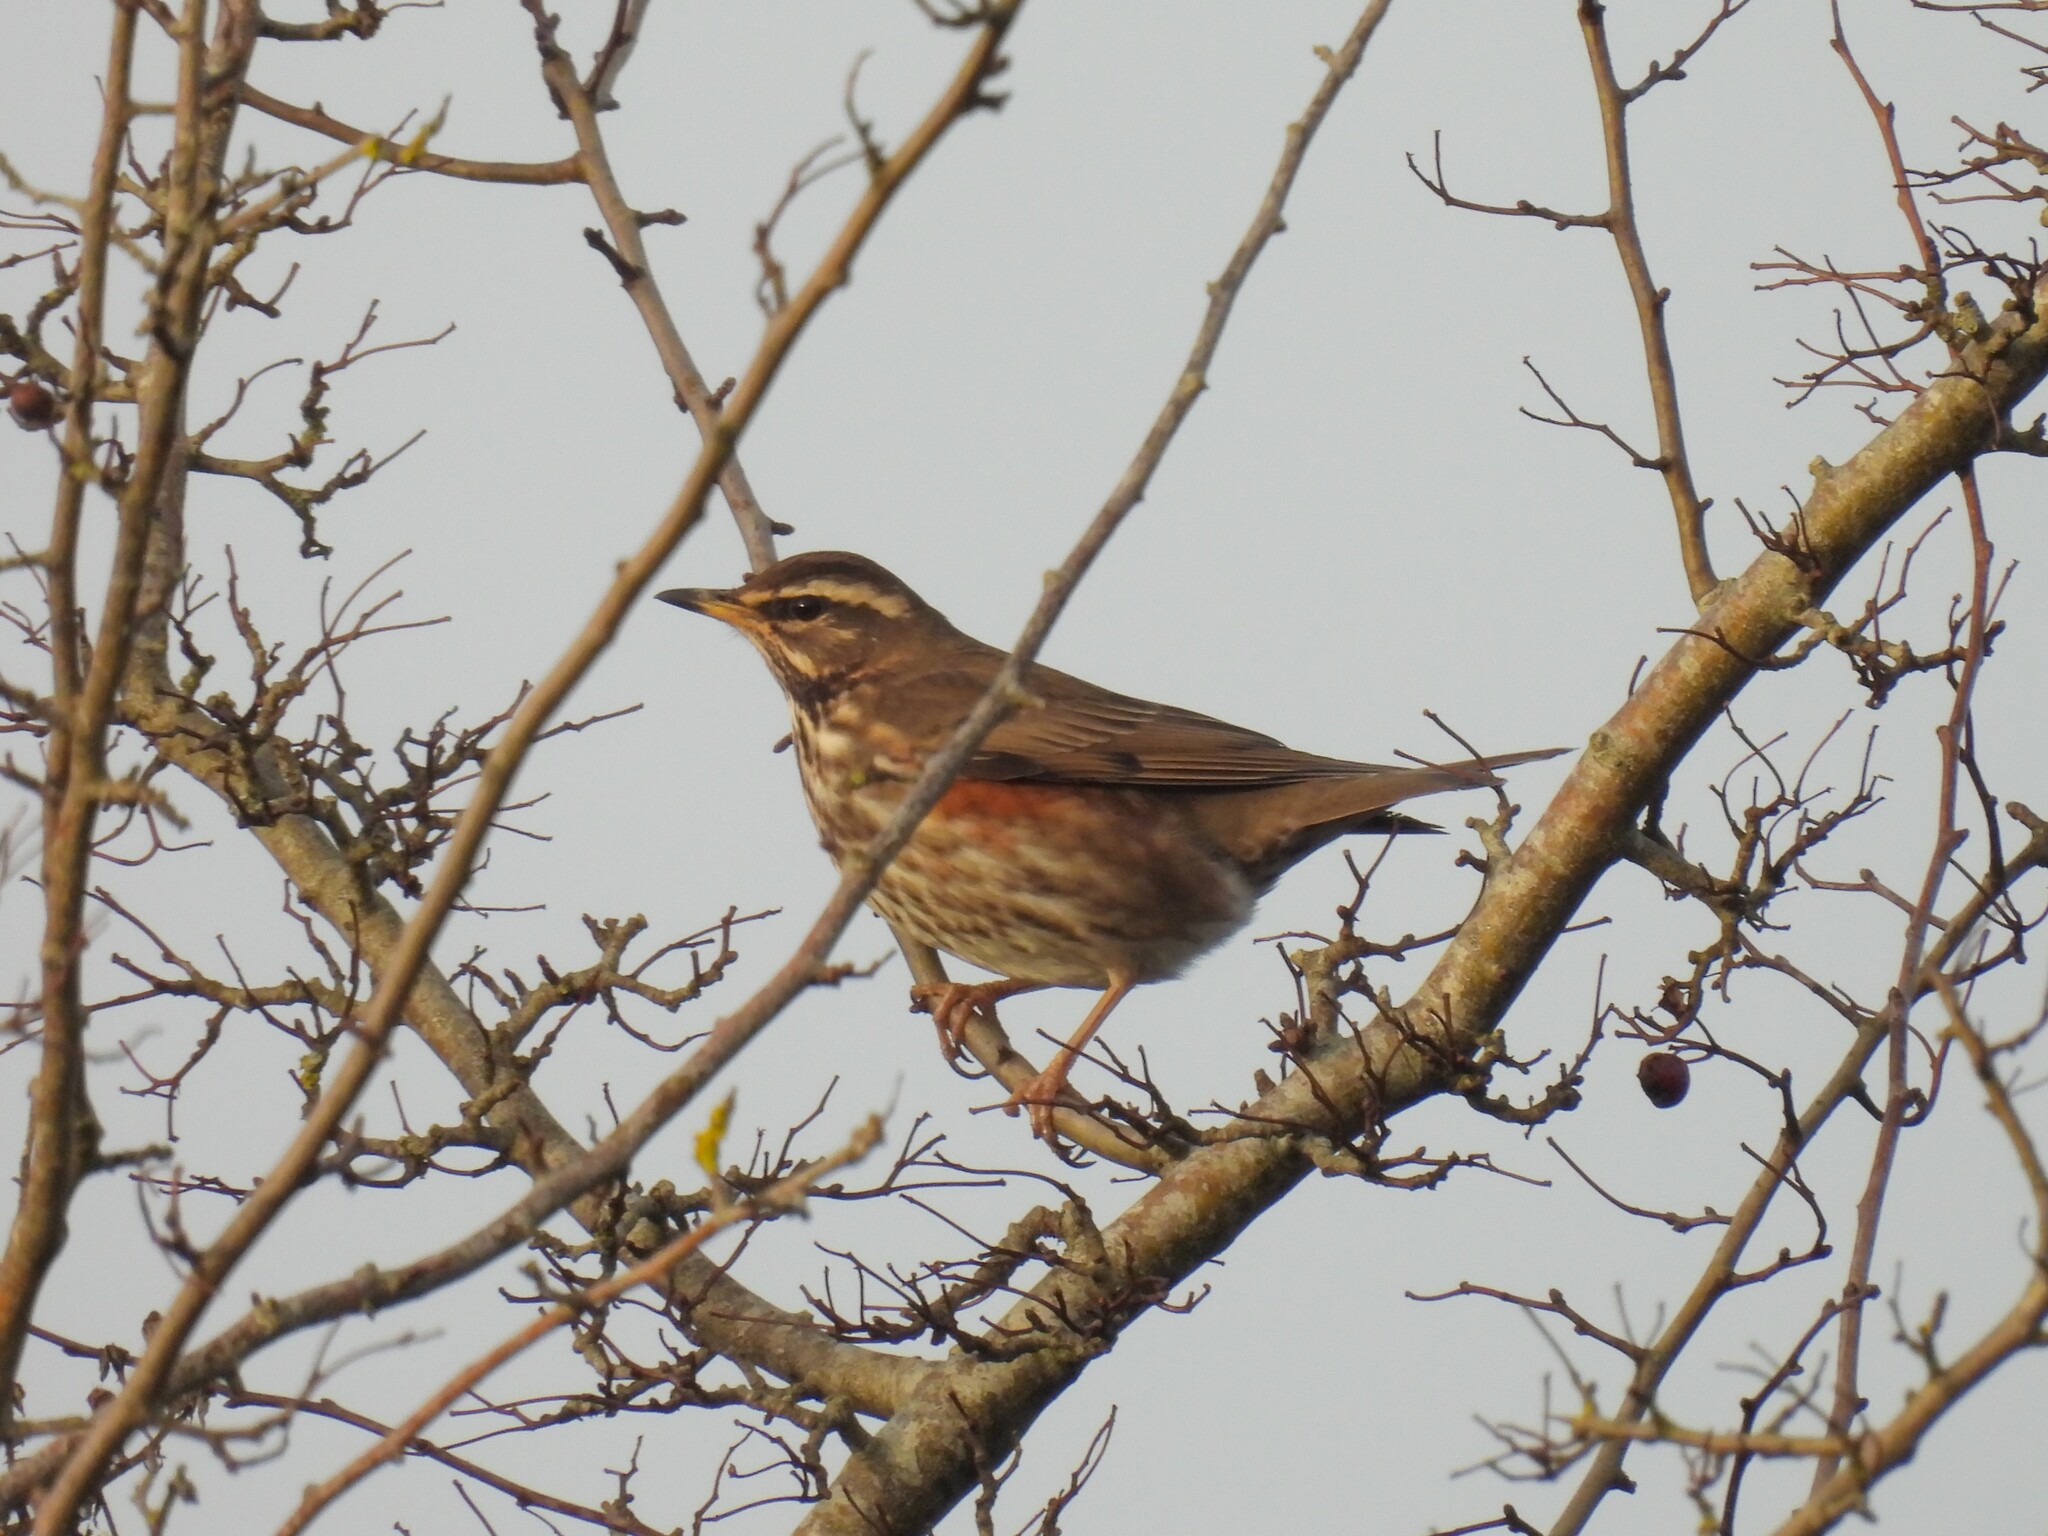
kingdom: Animalia
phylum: Chordata
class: Aves
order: Passeriformes
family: Turdidae
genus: Turdus
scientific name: Turdus iliacus
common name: Redwing
